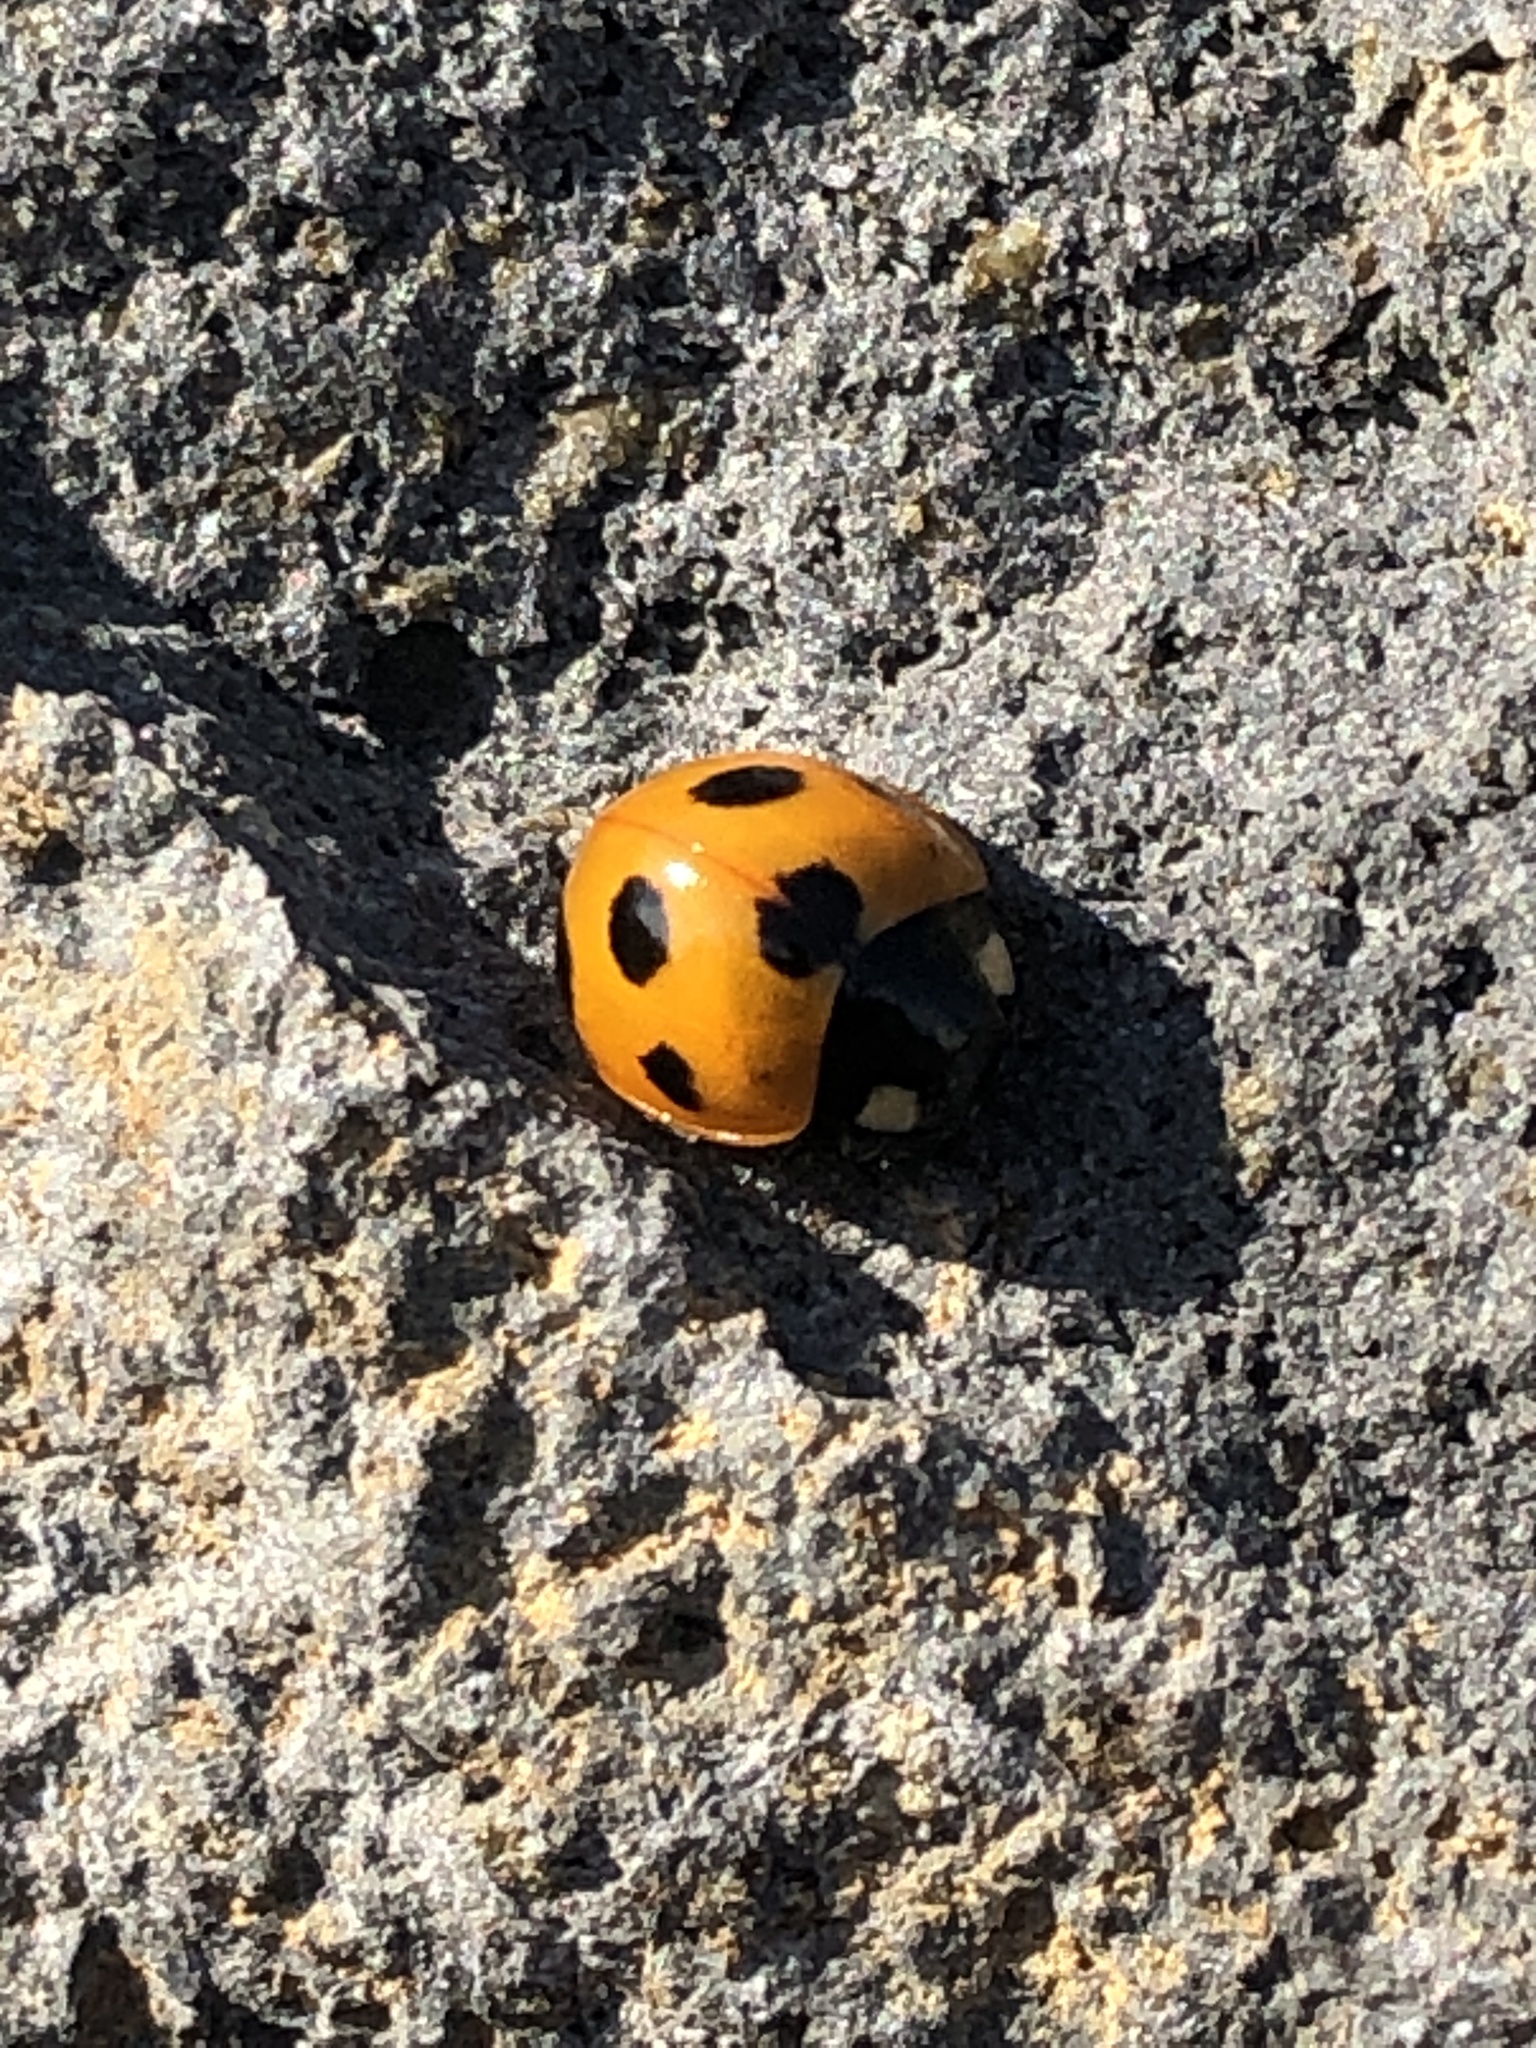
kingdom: Animalia
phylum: Arthropoda
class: Insecta
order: Coleoptera
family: Coccinellidae
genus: Coccinella
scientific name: Coccinella septempunctata
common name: Sevenspotted lady beetle
